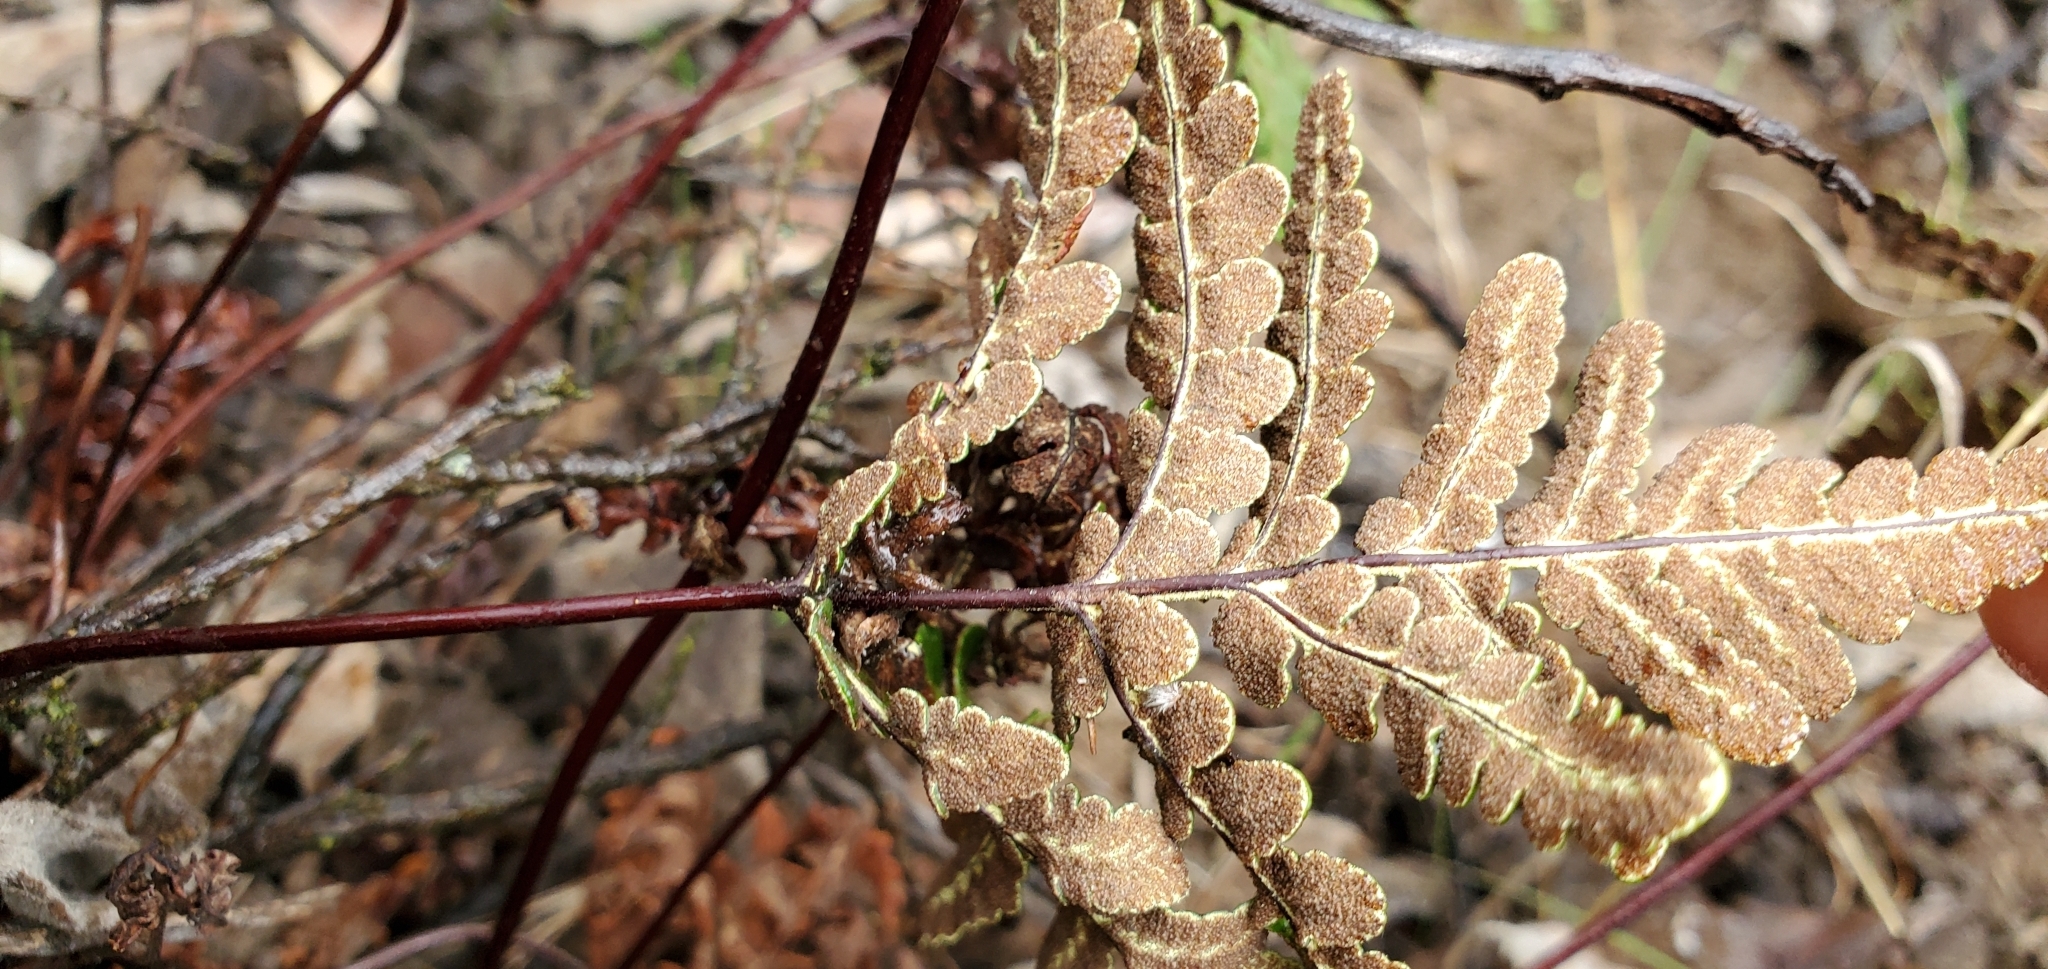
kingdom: Plantae
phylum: Tracheophyta
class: Polypodiopsida
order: Polypodiales
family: Pteridaceae
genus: Pentagramma
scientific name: Pentagramma triangularis
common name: Gold fern
